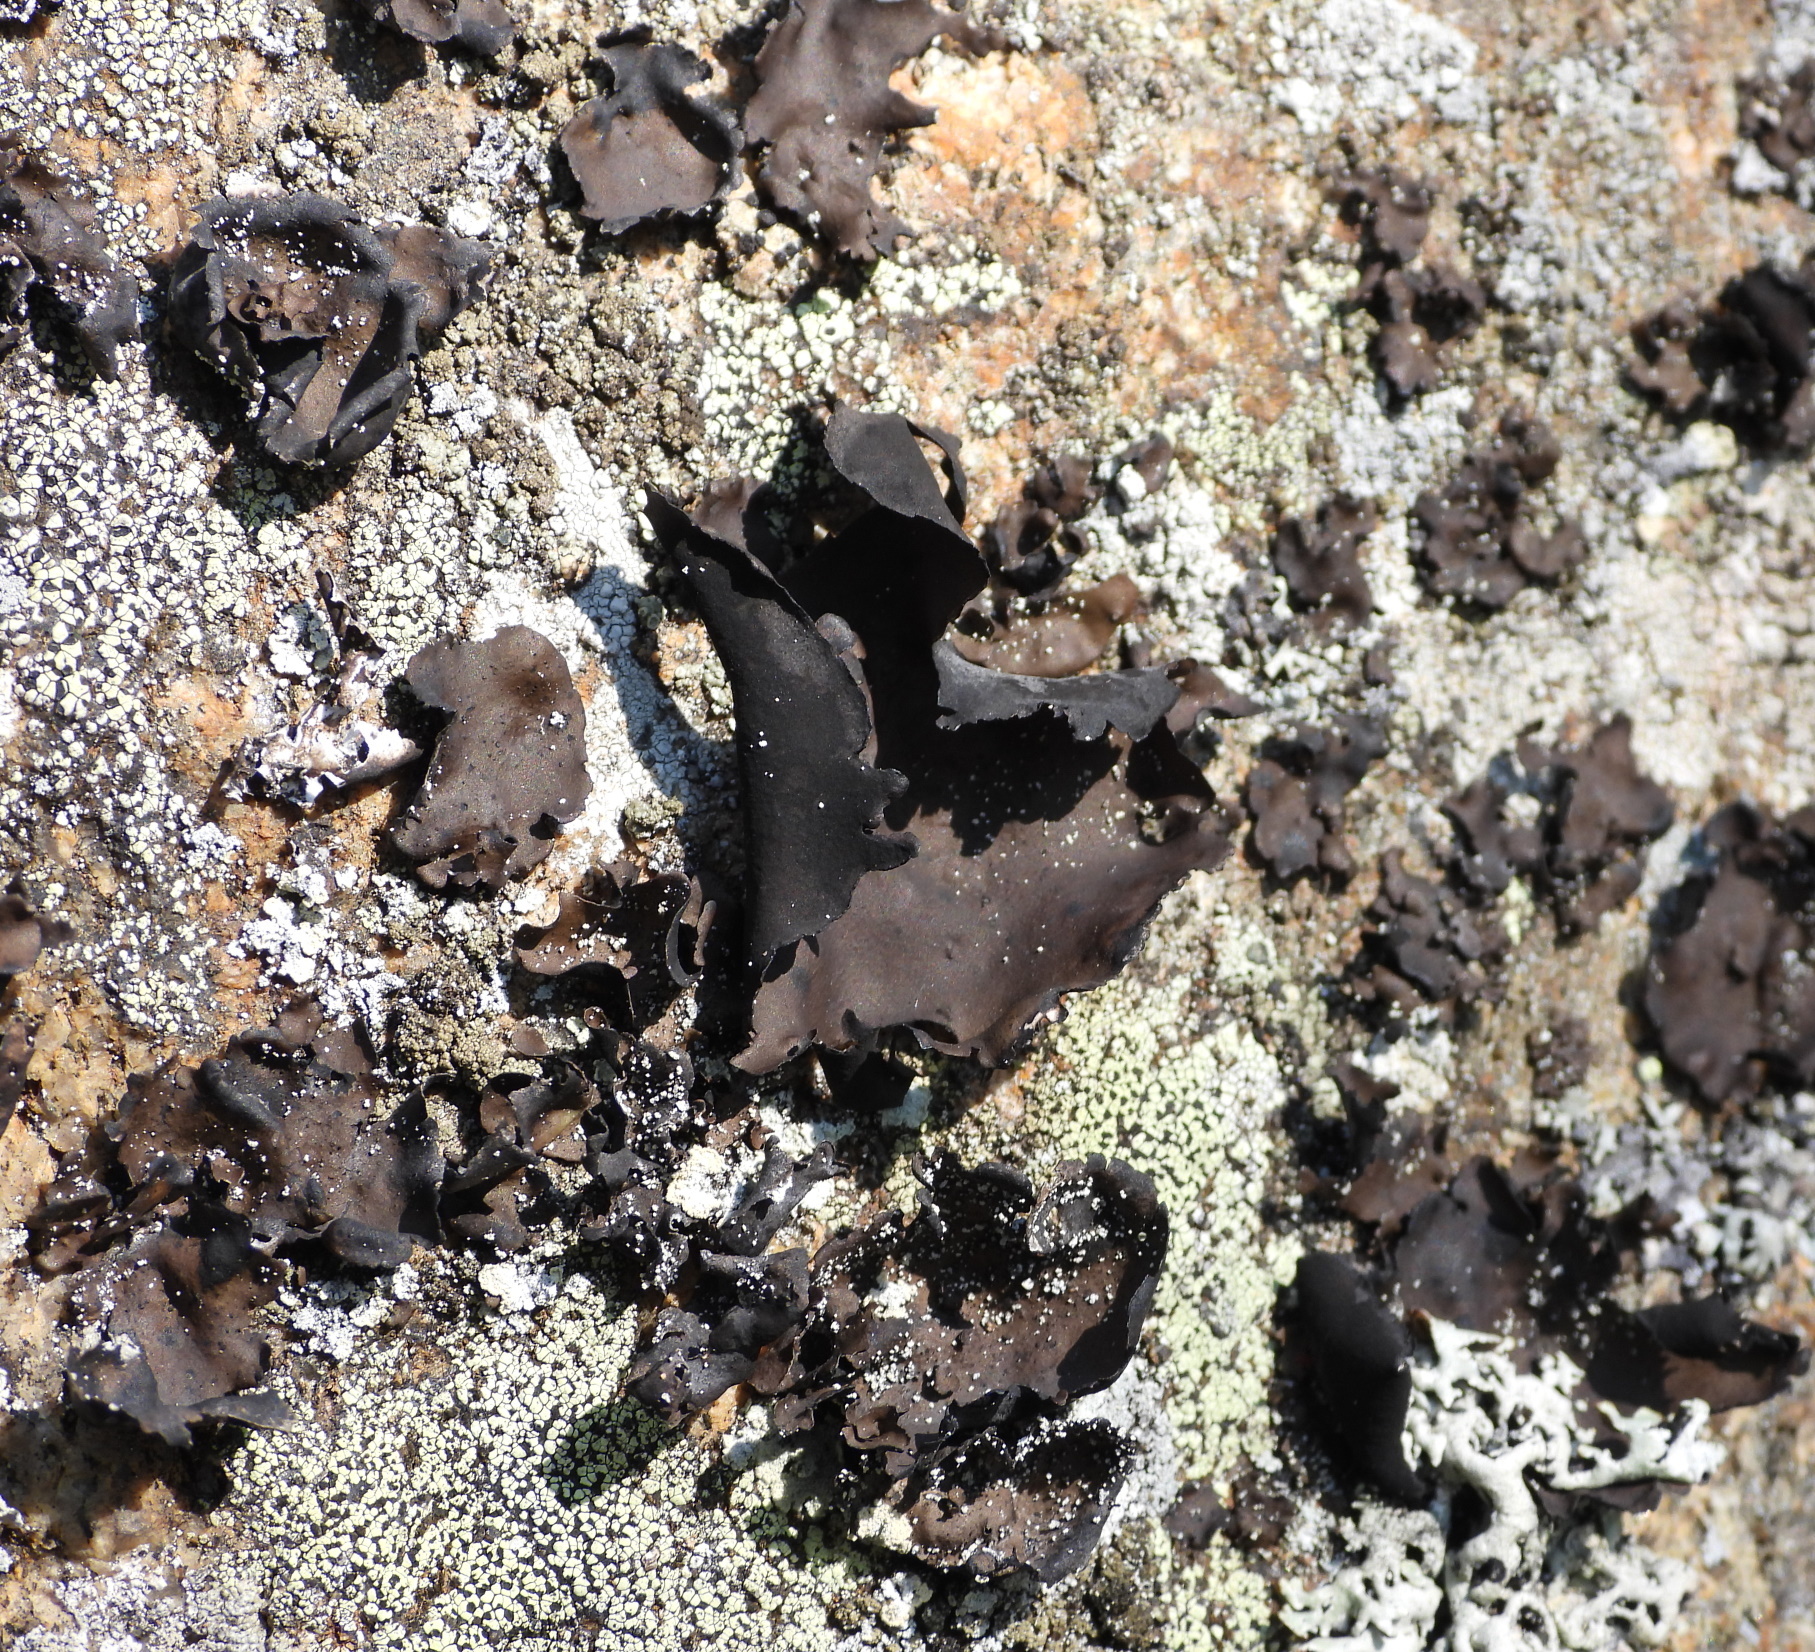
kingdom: Fungi
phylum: Ascomycota
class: Lecanoromycetes
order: Umbilicariales
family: Umbilicariaceae
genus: Umbilicaria
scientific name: Umbilicaria polyphylla
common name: Petalled rocktripe lichen
